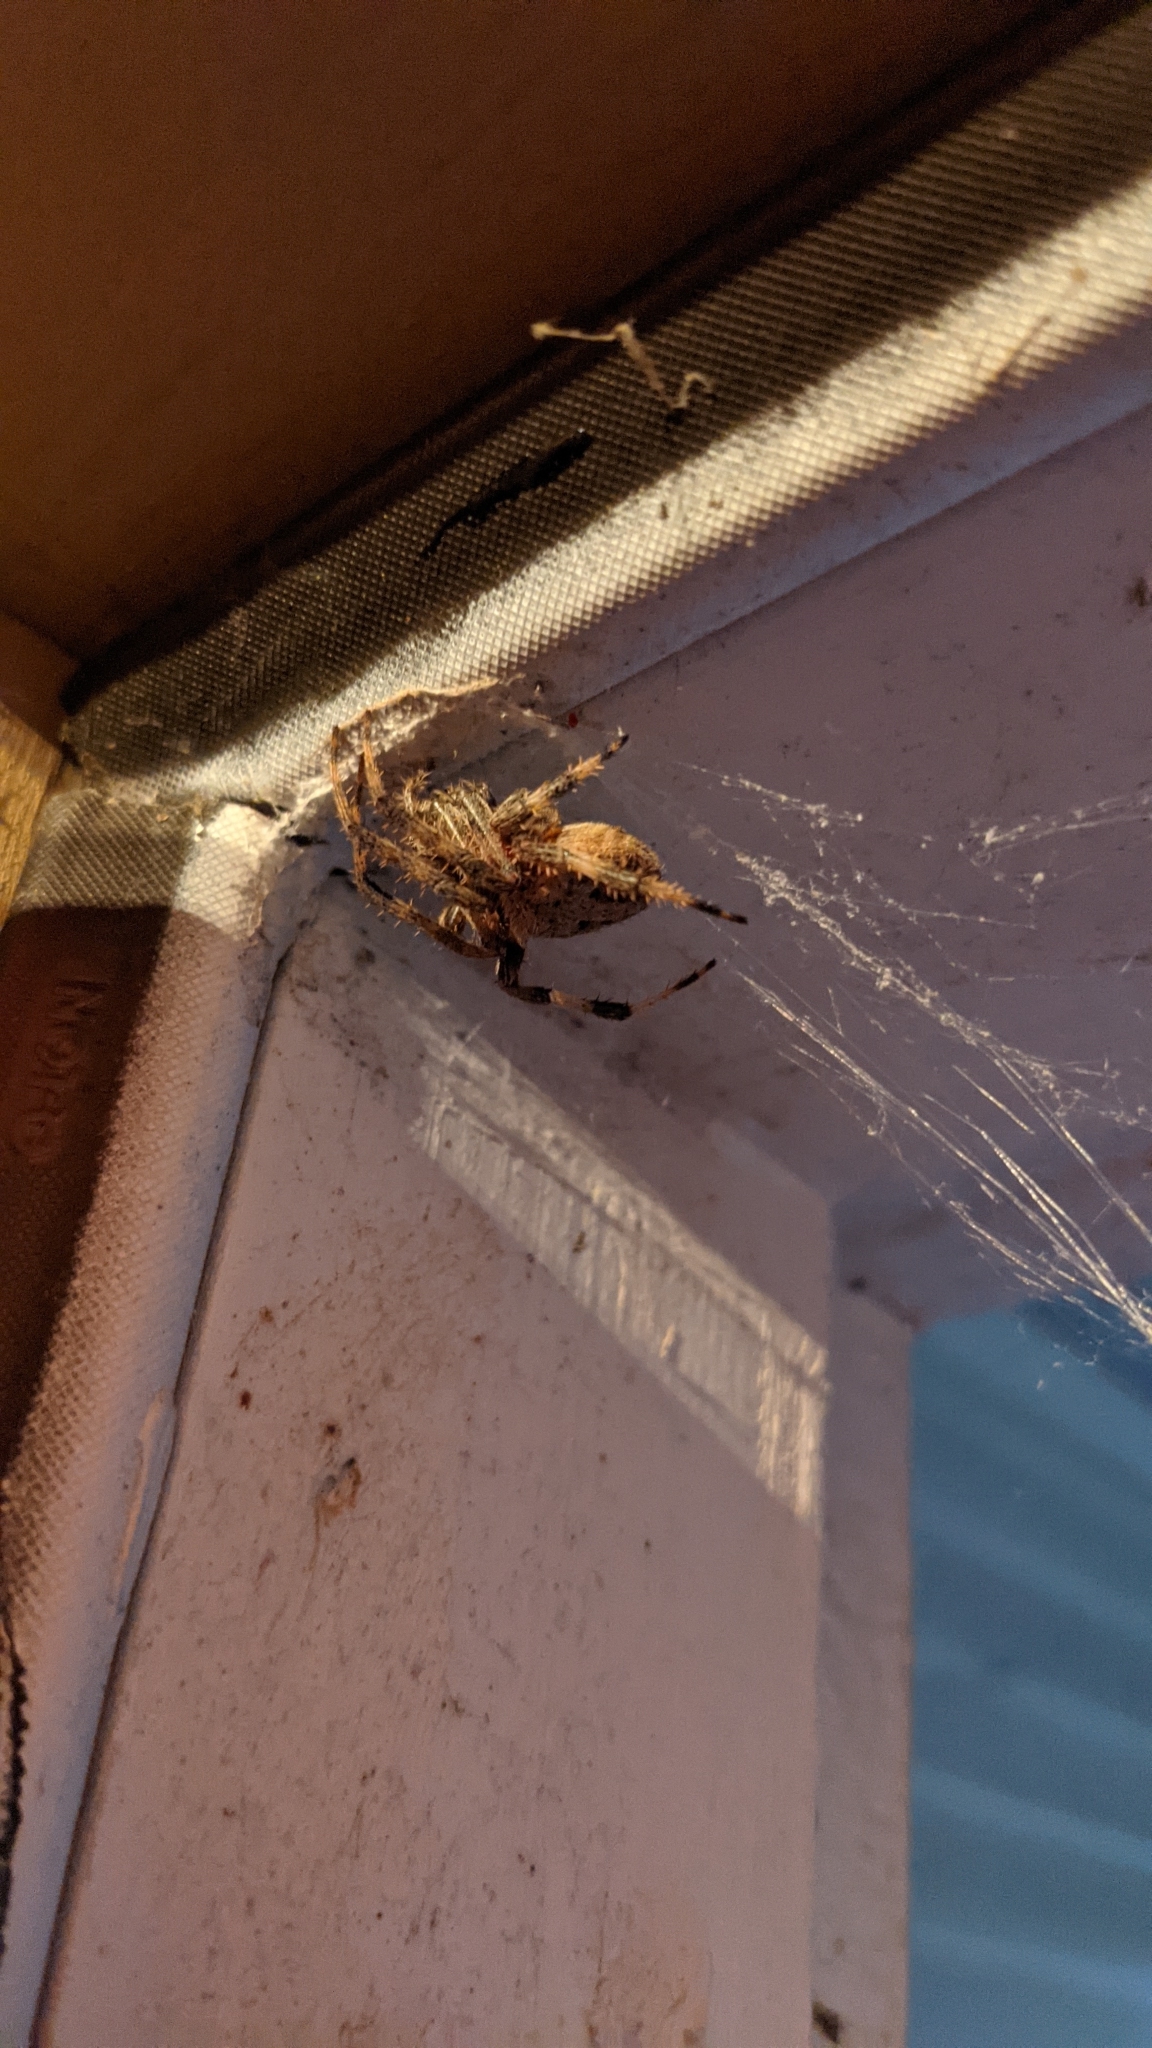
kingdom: Animalia
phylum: Arthropoda
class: Arachnida
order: Araneae
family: Araneidae
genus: Neoscona
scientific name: Neoscona crucifera
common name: Spotted orbweaver
